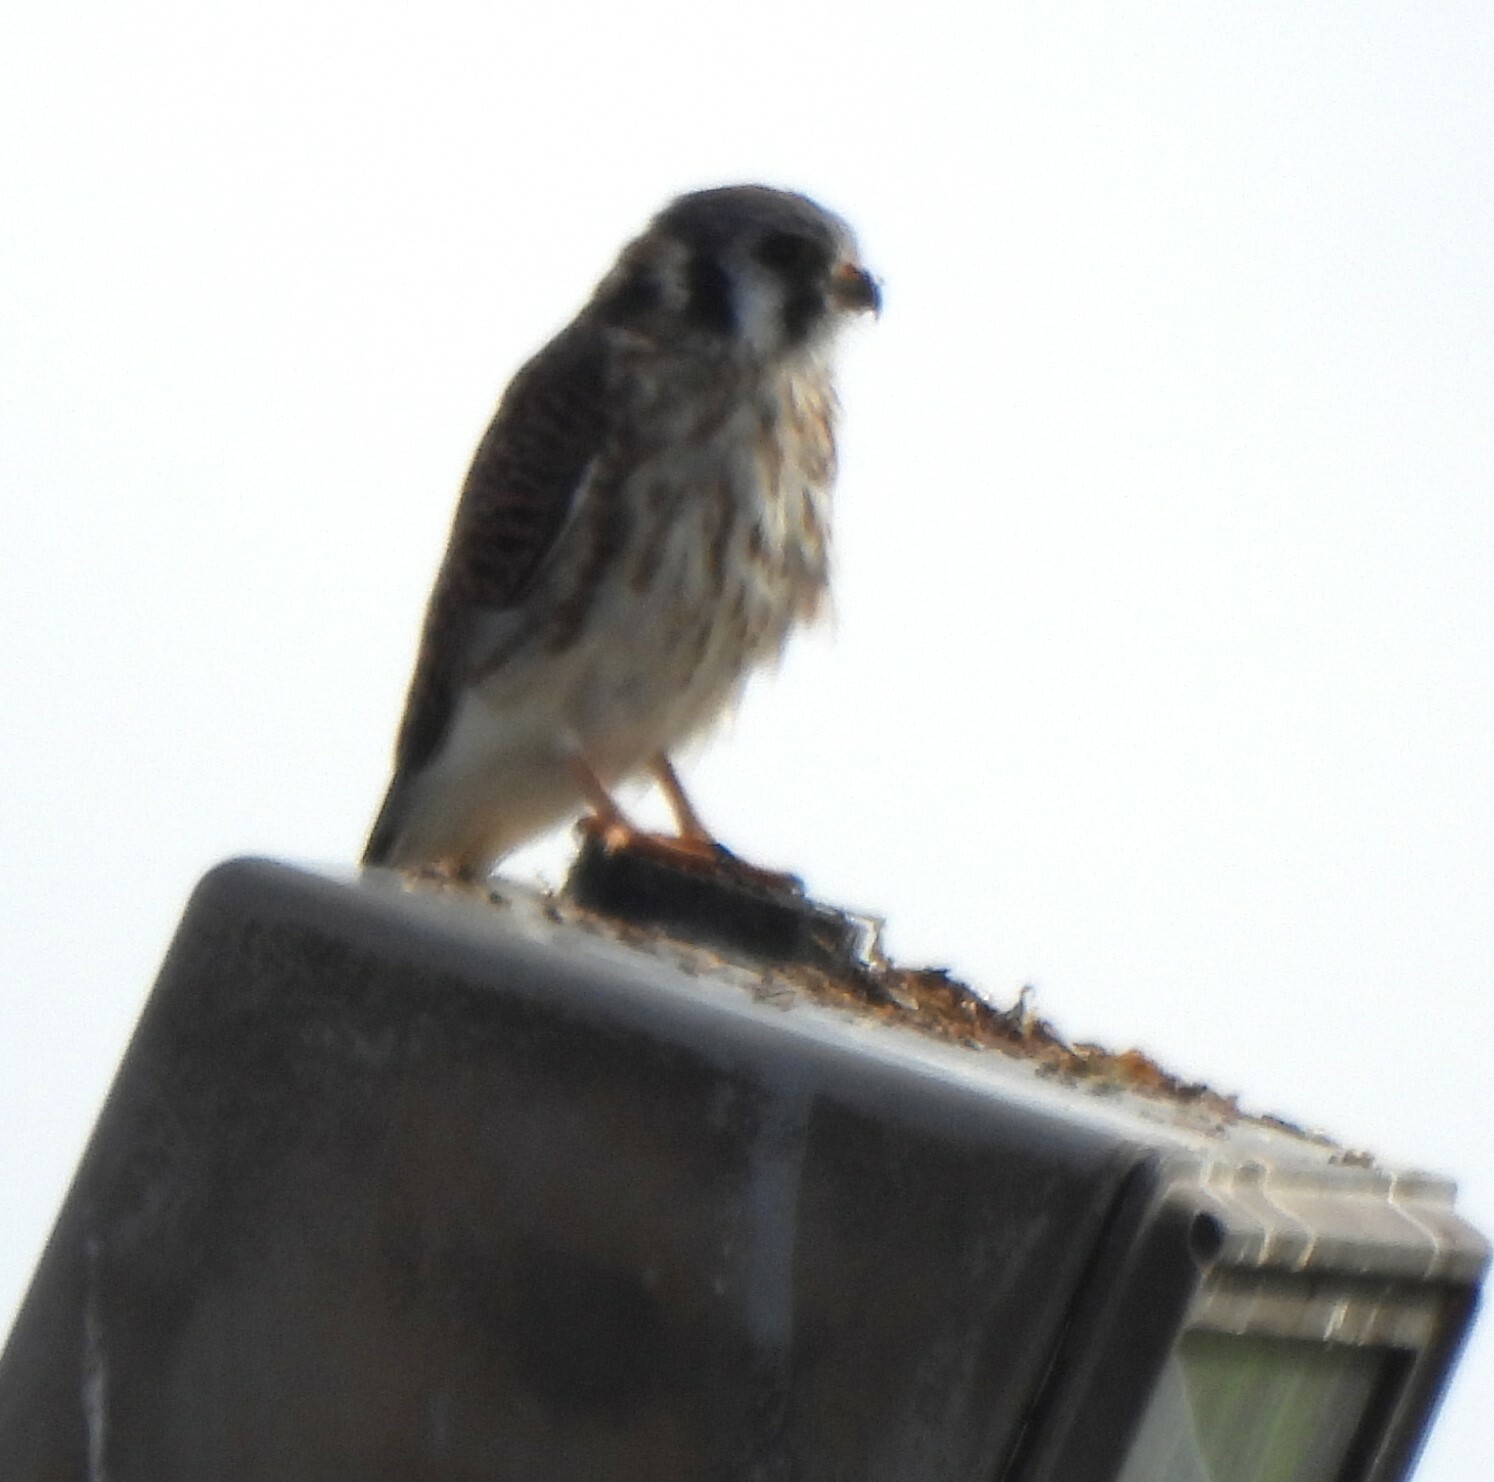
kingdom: Animalia
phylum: Chordata
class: Aves
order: Falconiformes
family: Falconidae
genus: Falco
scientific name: Falco sparverius
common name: American kestrel
